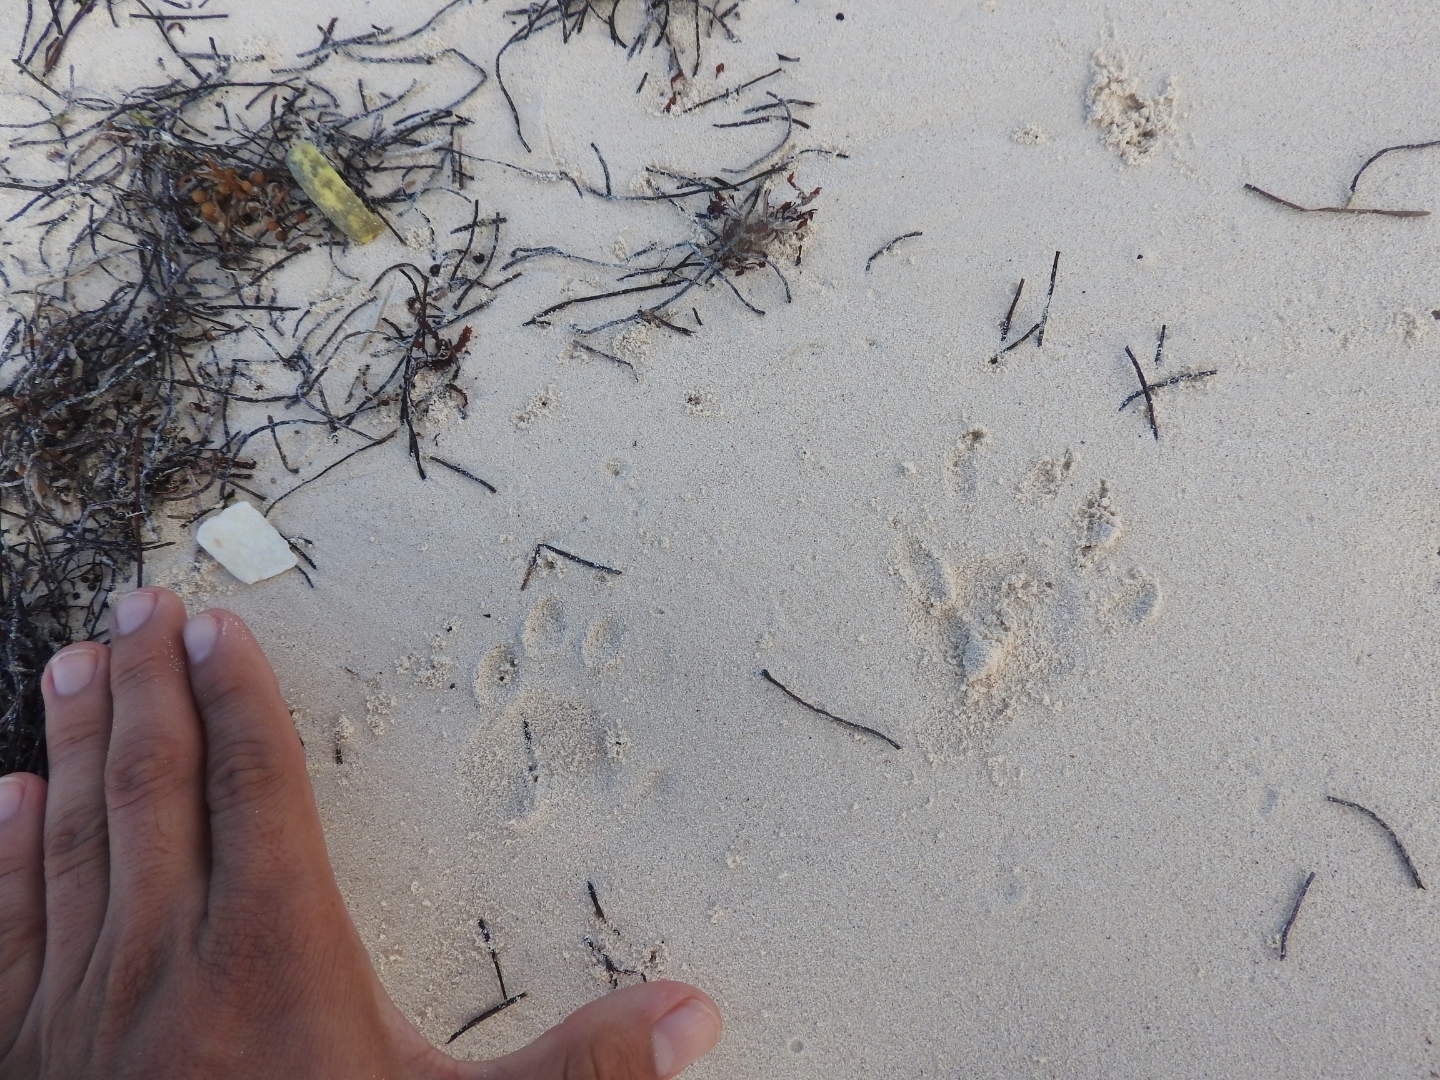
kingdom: Animalia
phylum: Chordata
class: Mammalia
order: Carnivora
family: Procyonidae
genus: Procyon
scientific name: Procyon lotor
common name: Raccoon
